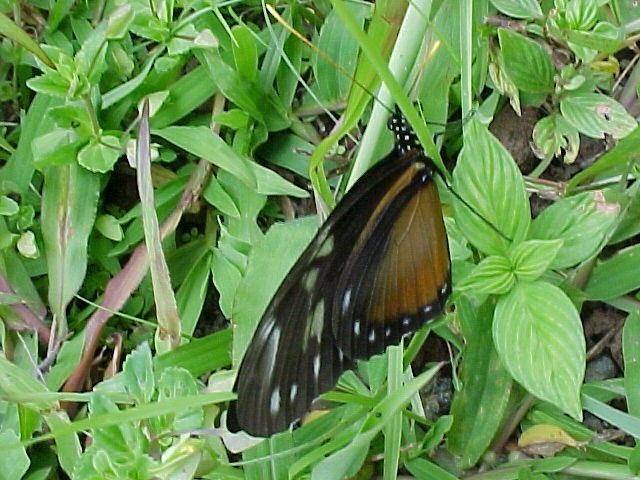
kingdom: Animalia
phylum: Arthropoda
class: Insecta
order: Lepidoptera
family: Nymphalidae
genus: Heliconius
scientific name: Heliconius hecalesia
